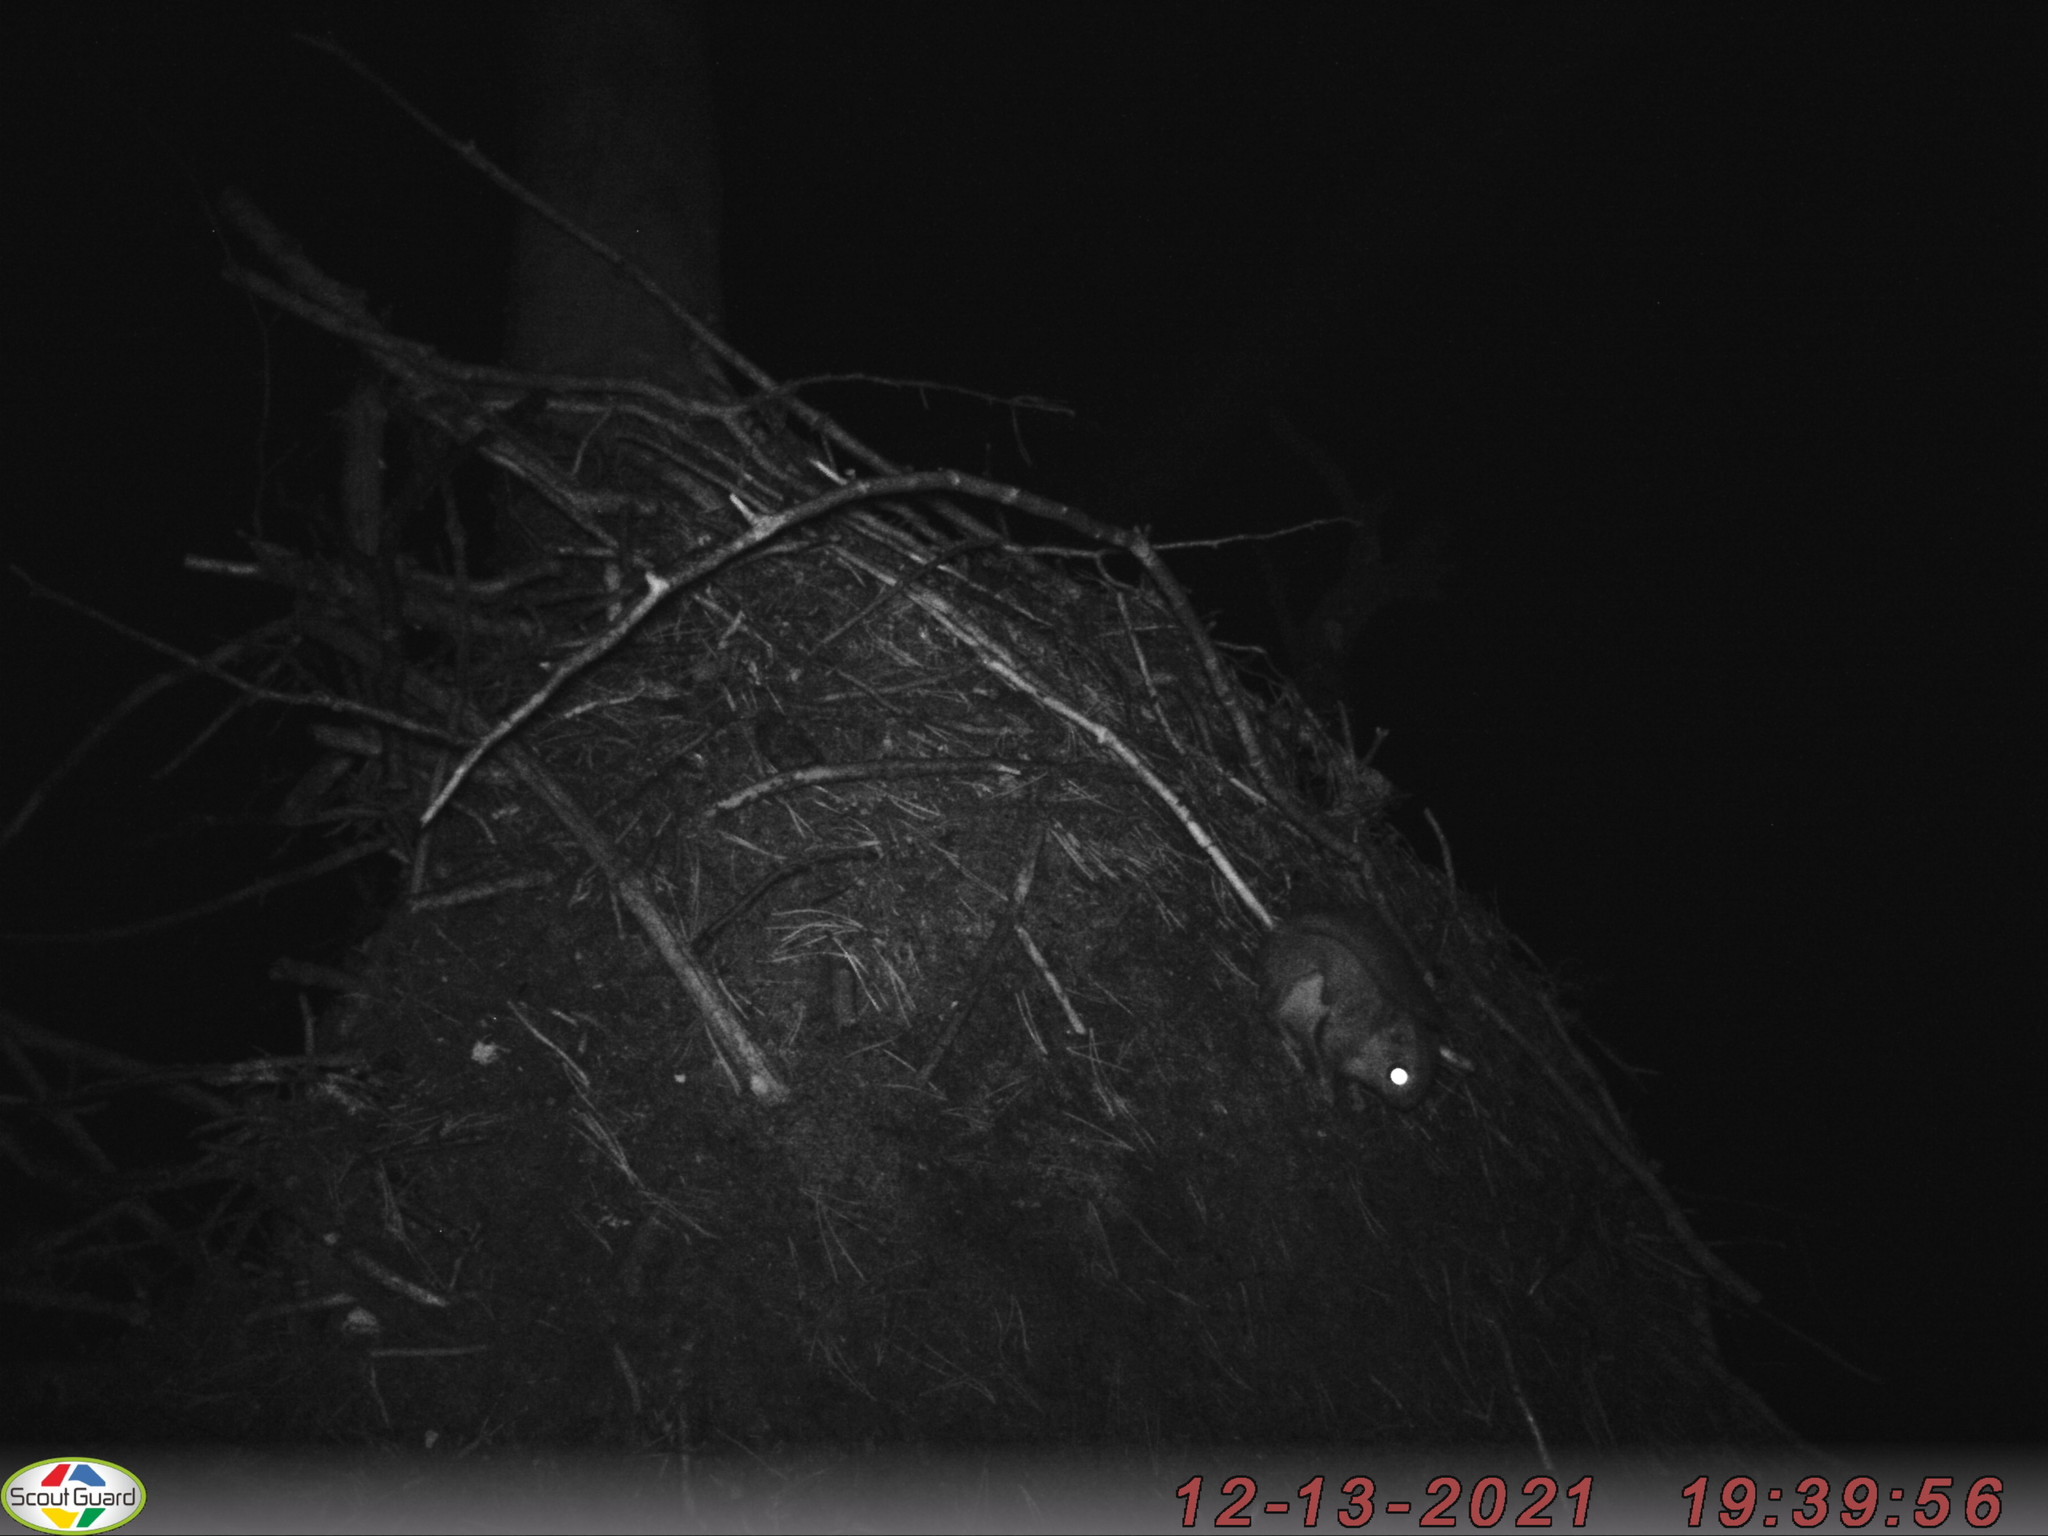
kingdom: Animalia
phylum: Chordata
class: Mammalia
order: Rodentia
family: Sciuridae
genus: Pteromys
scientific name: Pteromys volans
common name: Siberian flying squirrel
